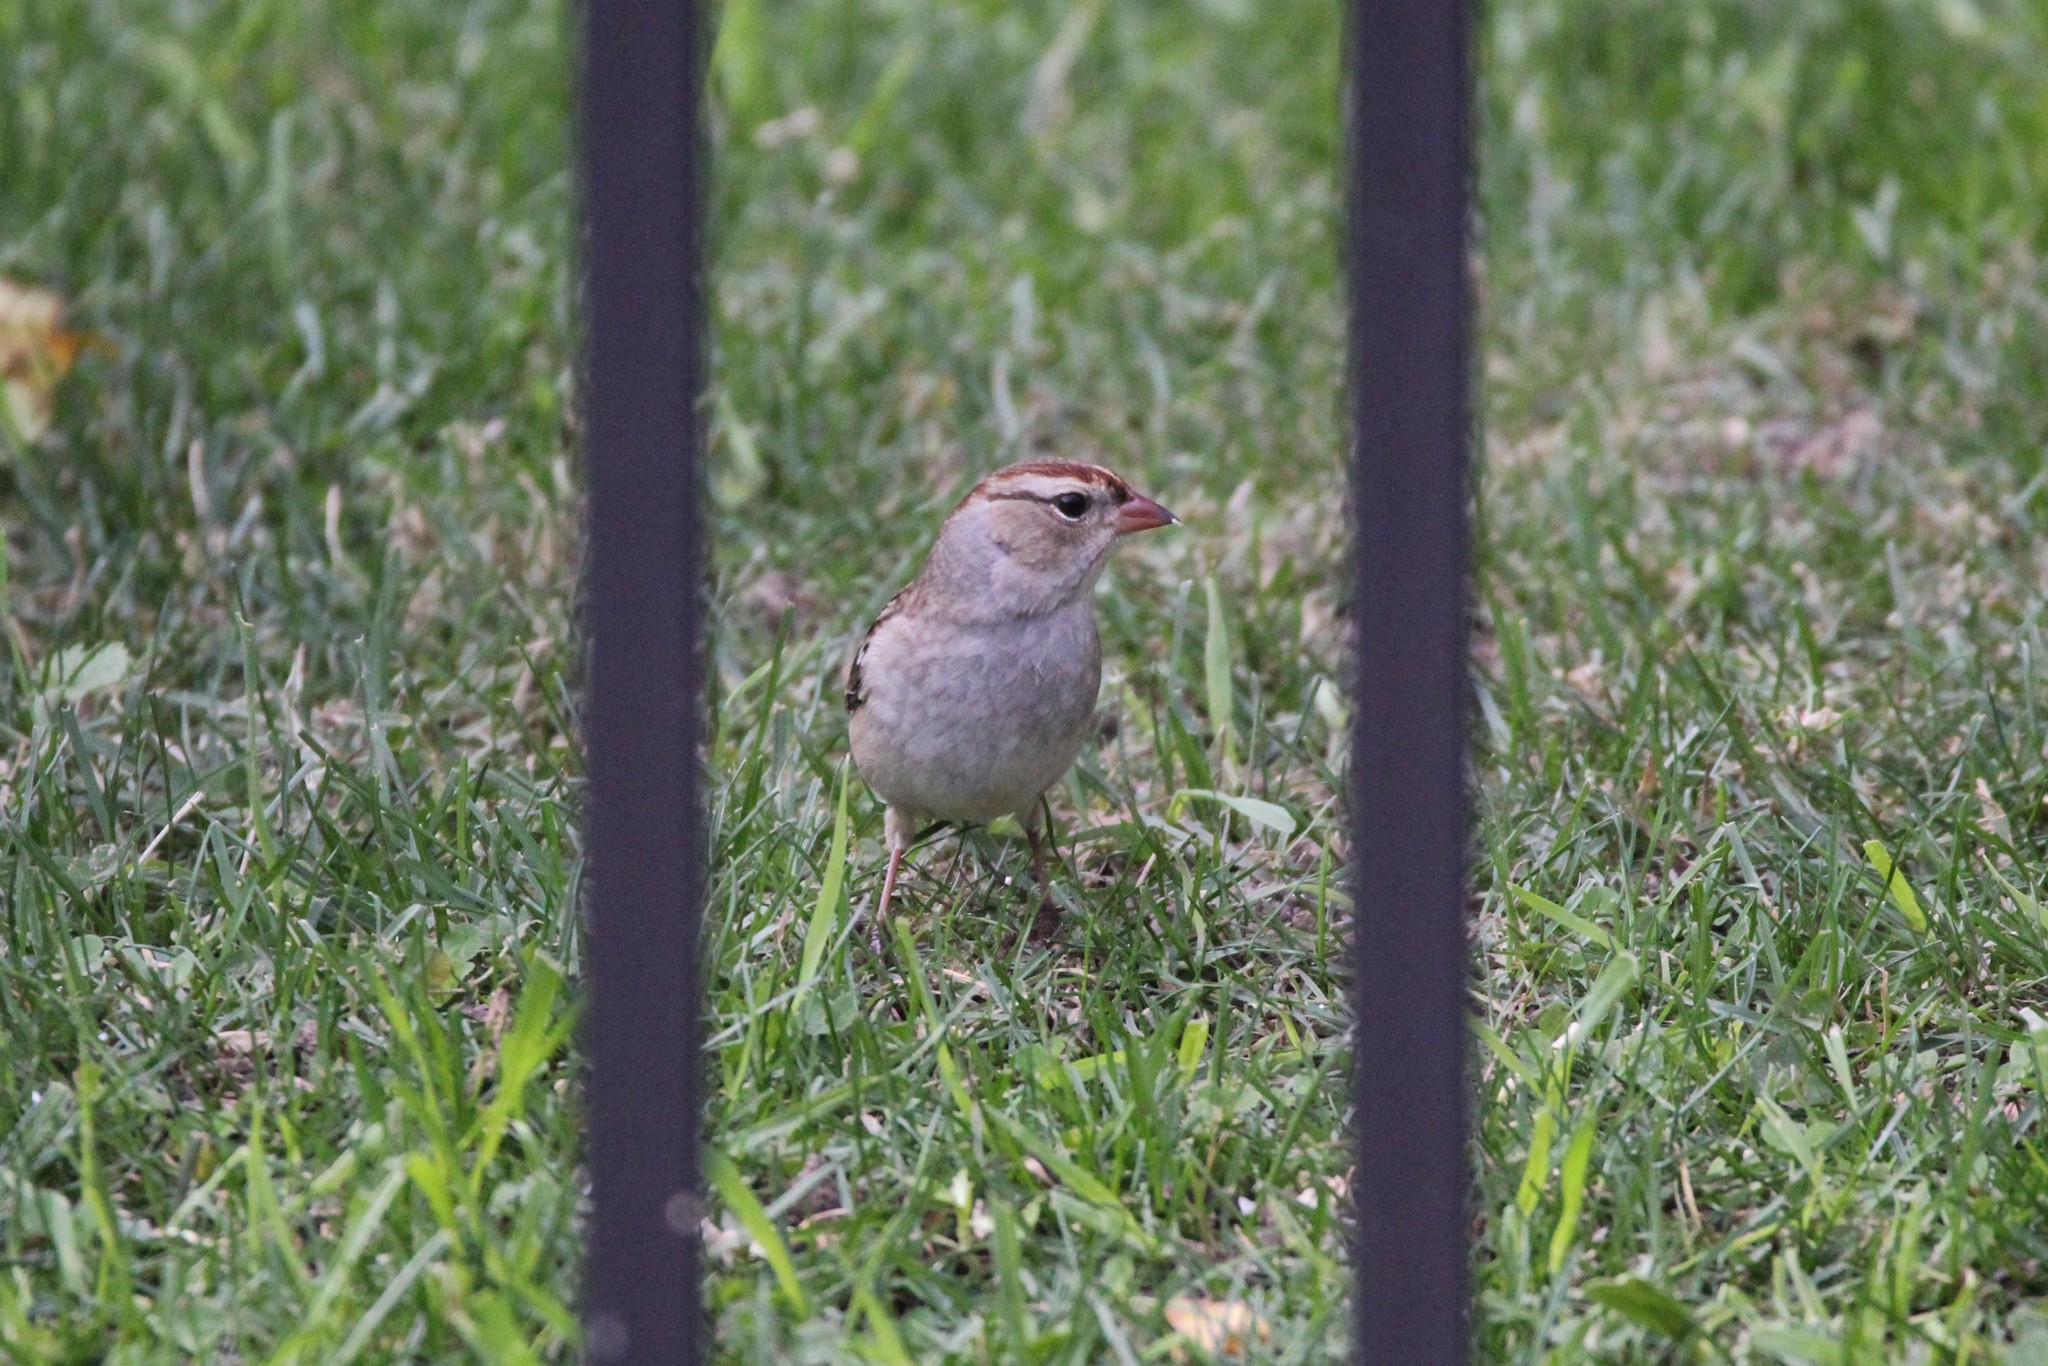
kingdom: Animalia
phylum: Chordata
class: Aves
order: Passeriformes
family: Passerellidae
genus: Zonotrichia
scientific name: Zonotrichia leucophrys
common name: White-crowned sparrow
